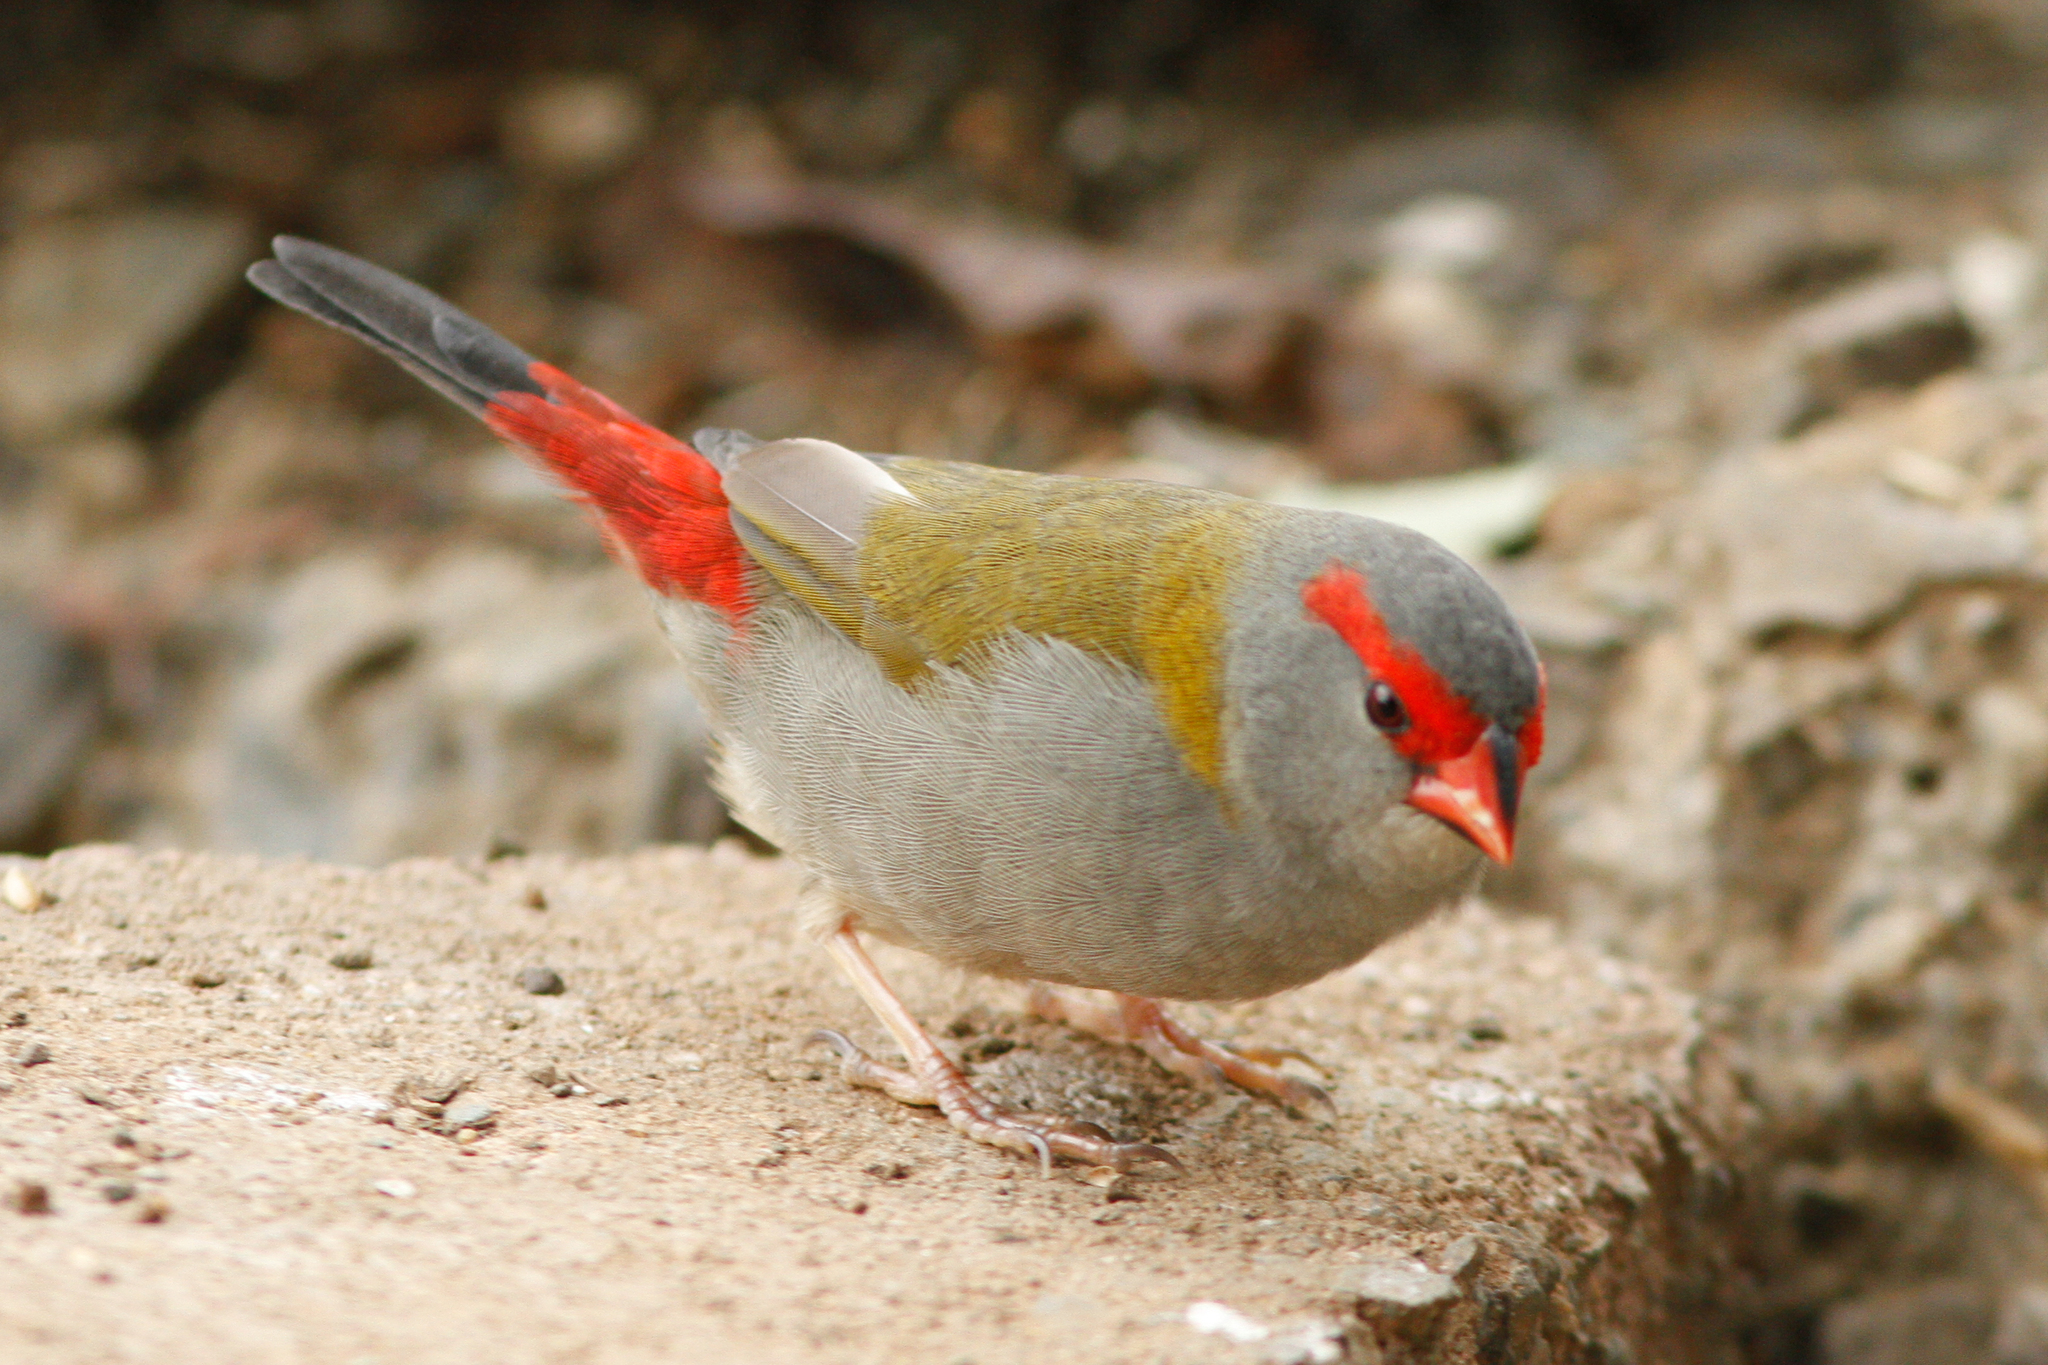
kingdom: Animalia
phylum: Chordata
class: Aves
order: Passeriformes
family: Estrildidae
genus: Neochmia
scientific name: Neochmia temporalis
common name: Red-browed finch
